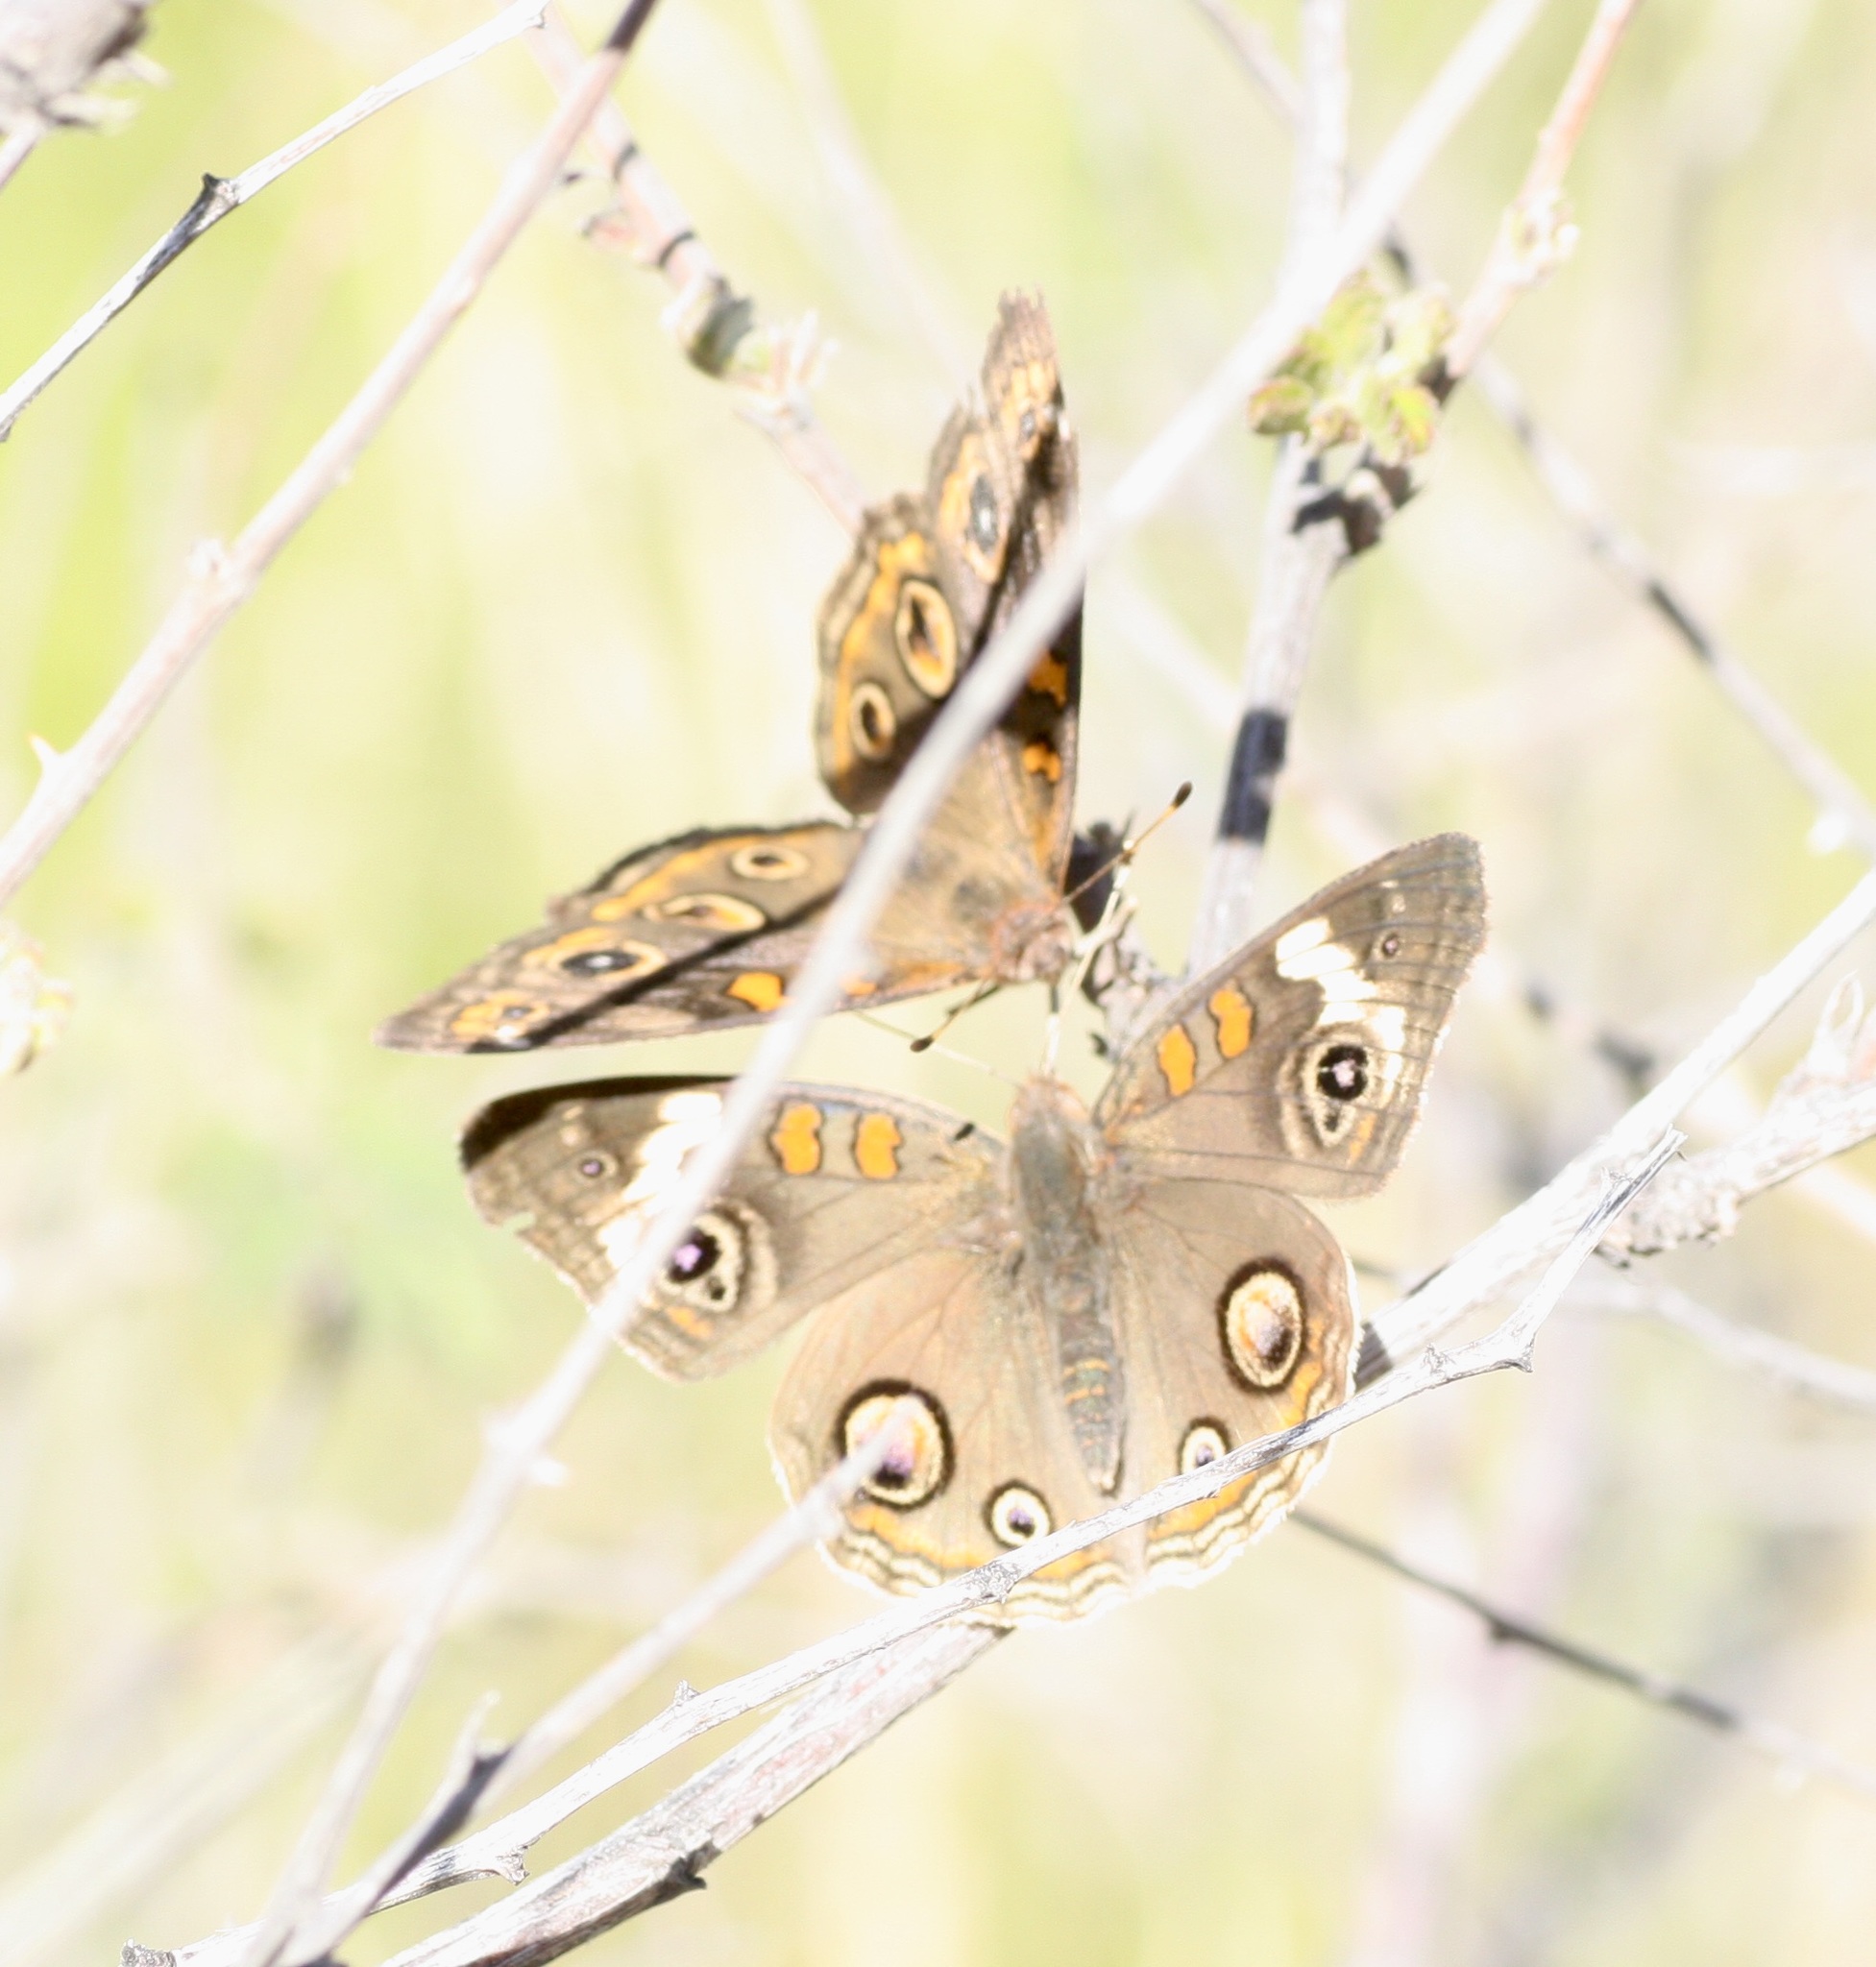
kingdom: Animalia
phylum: Arthropoda
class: Insecta
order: Lepidoptera
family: Nymphalidae
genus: Junonia
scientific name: Junonia grisea
